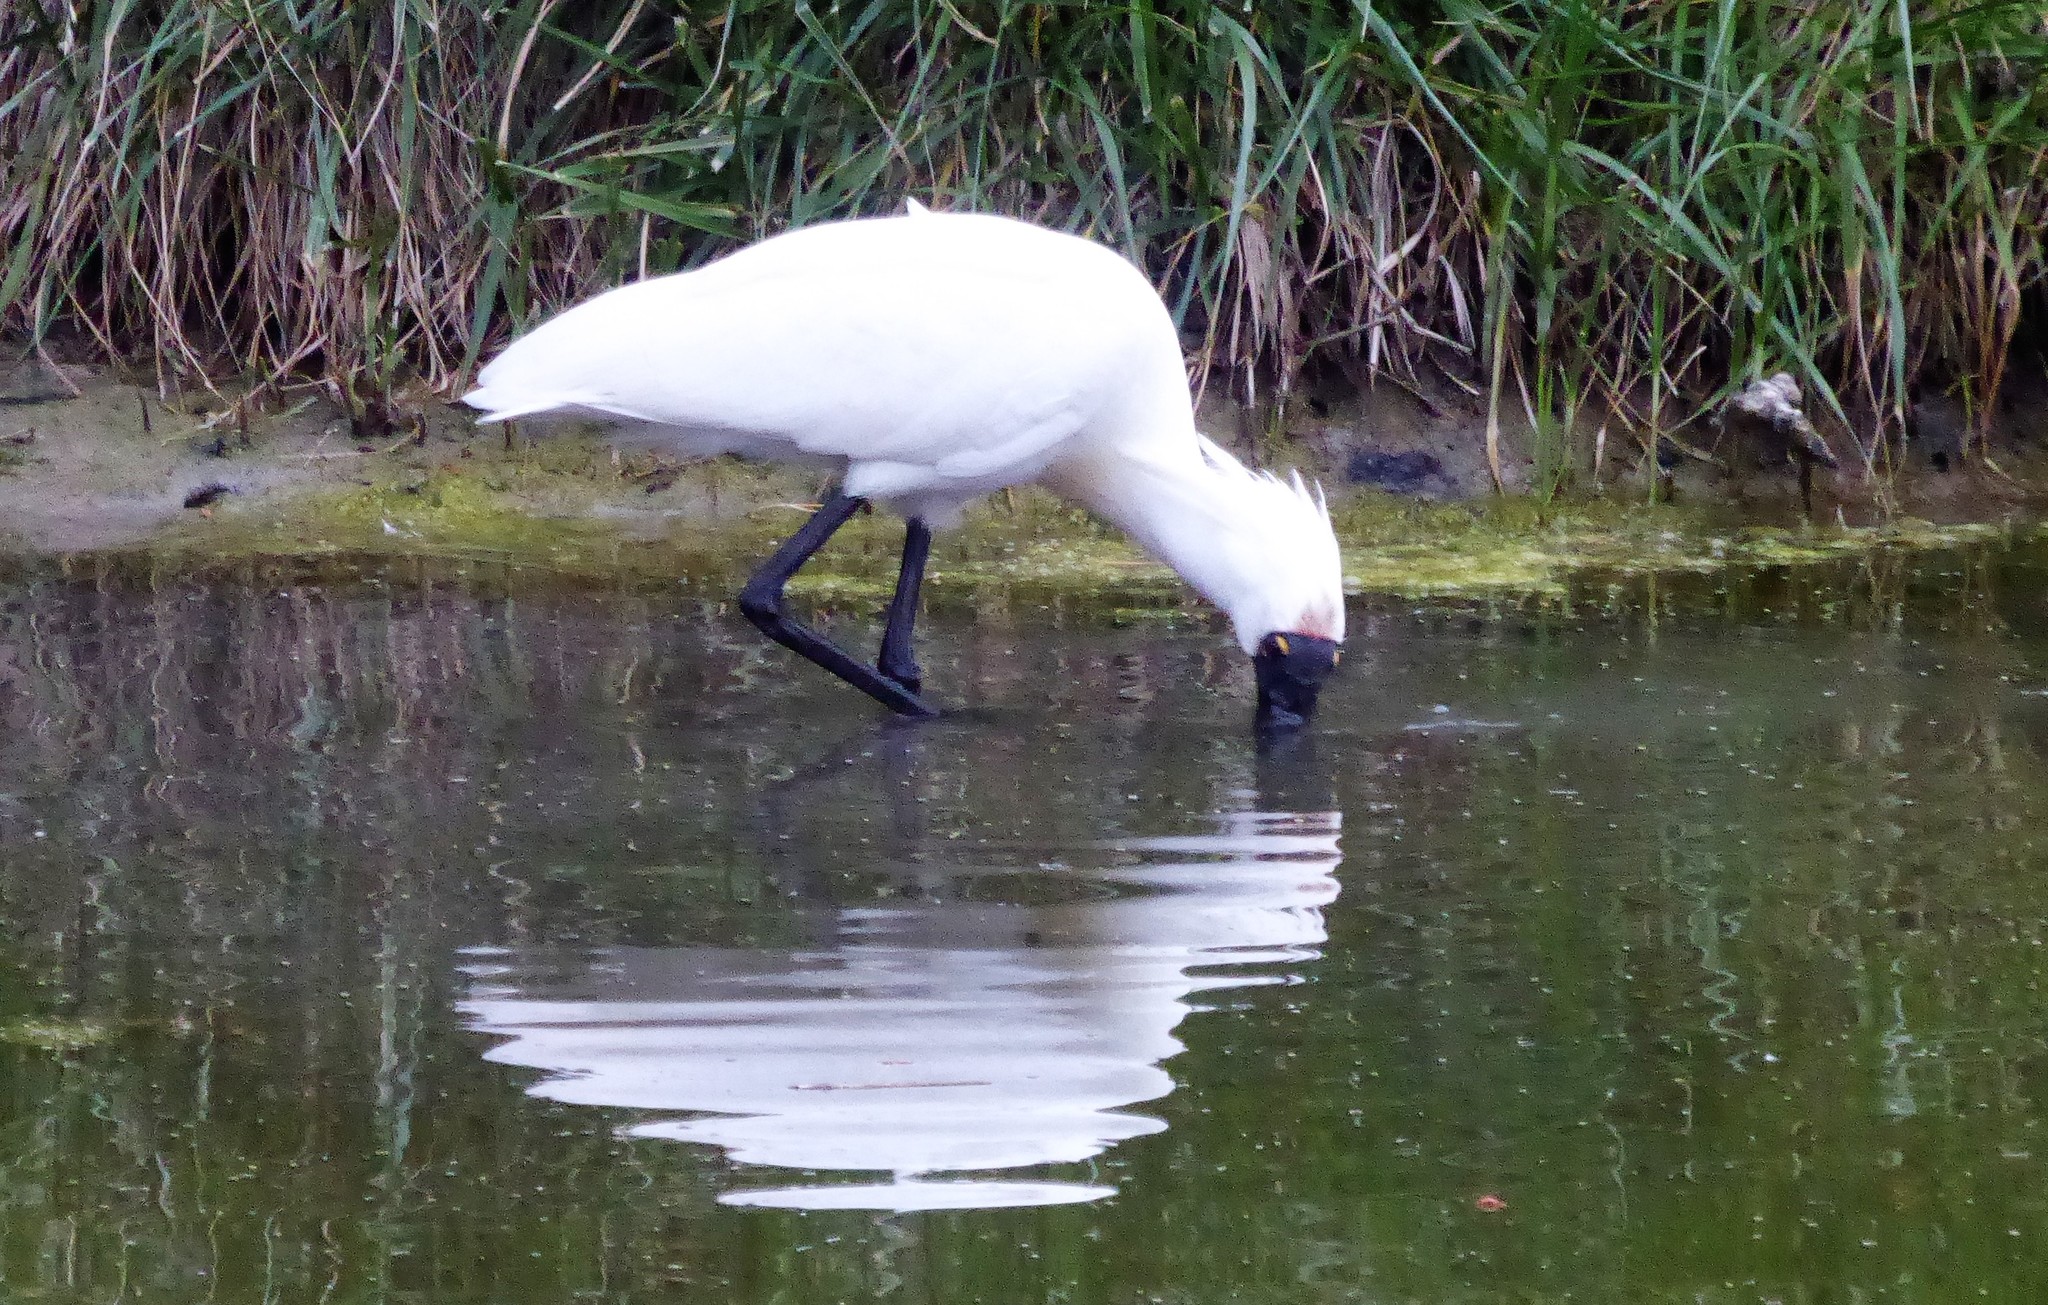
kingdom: Animalia
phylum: Chordata
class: Aves
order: Pelecaniformes
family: Threskiornithidae
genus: Platalea
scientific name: Platalea regia
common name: Royal spoonbill
